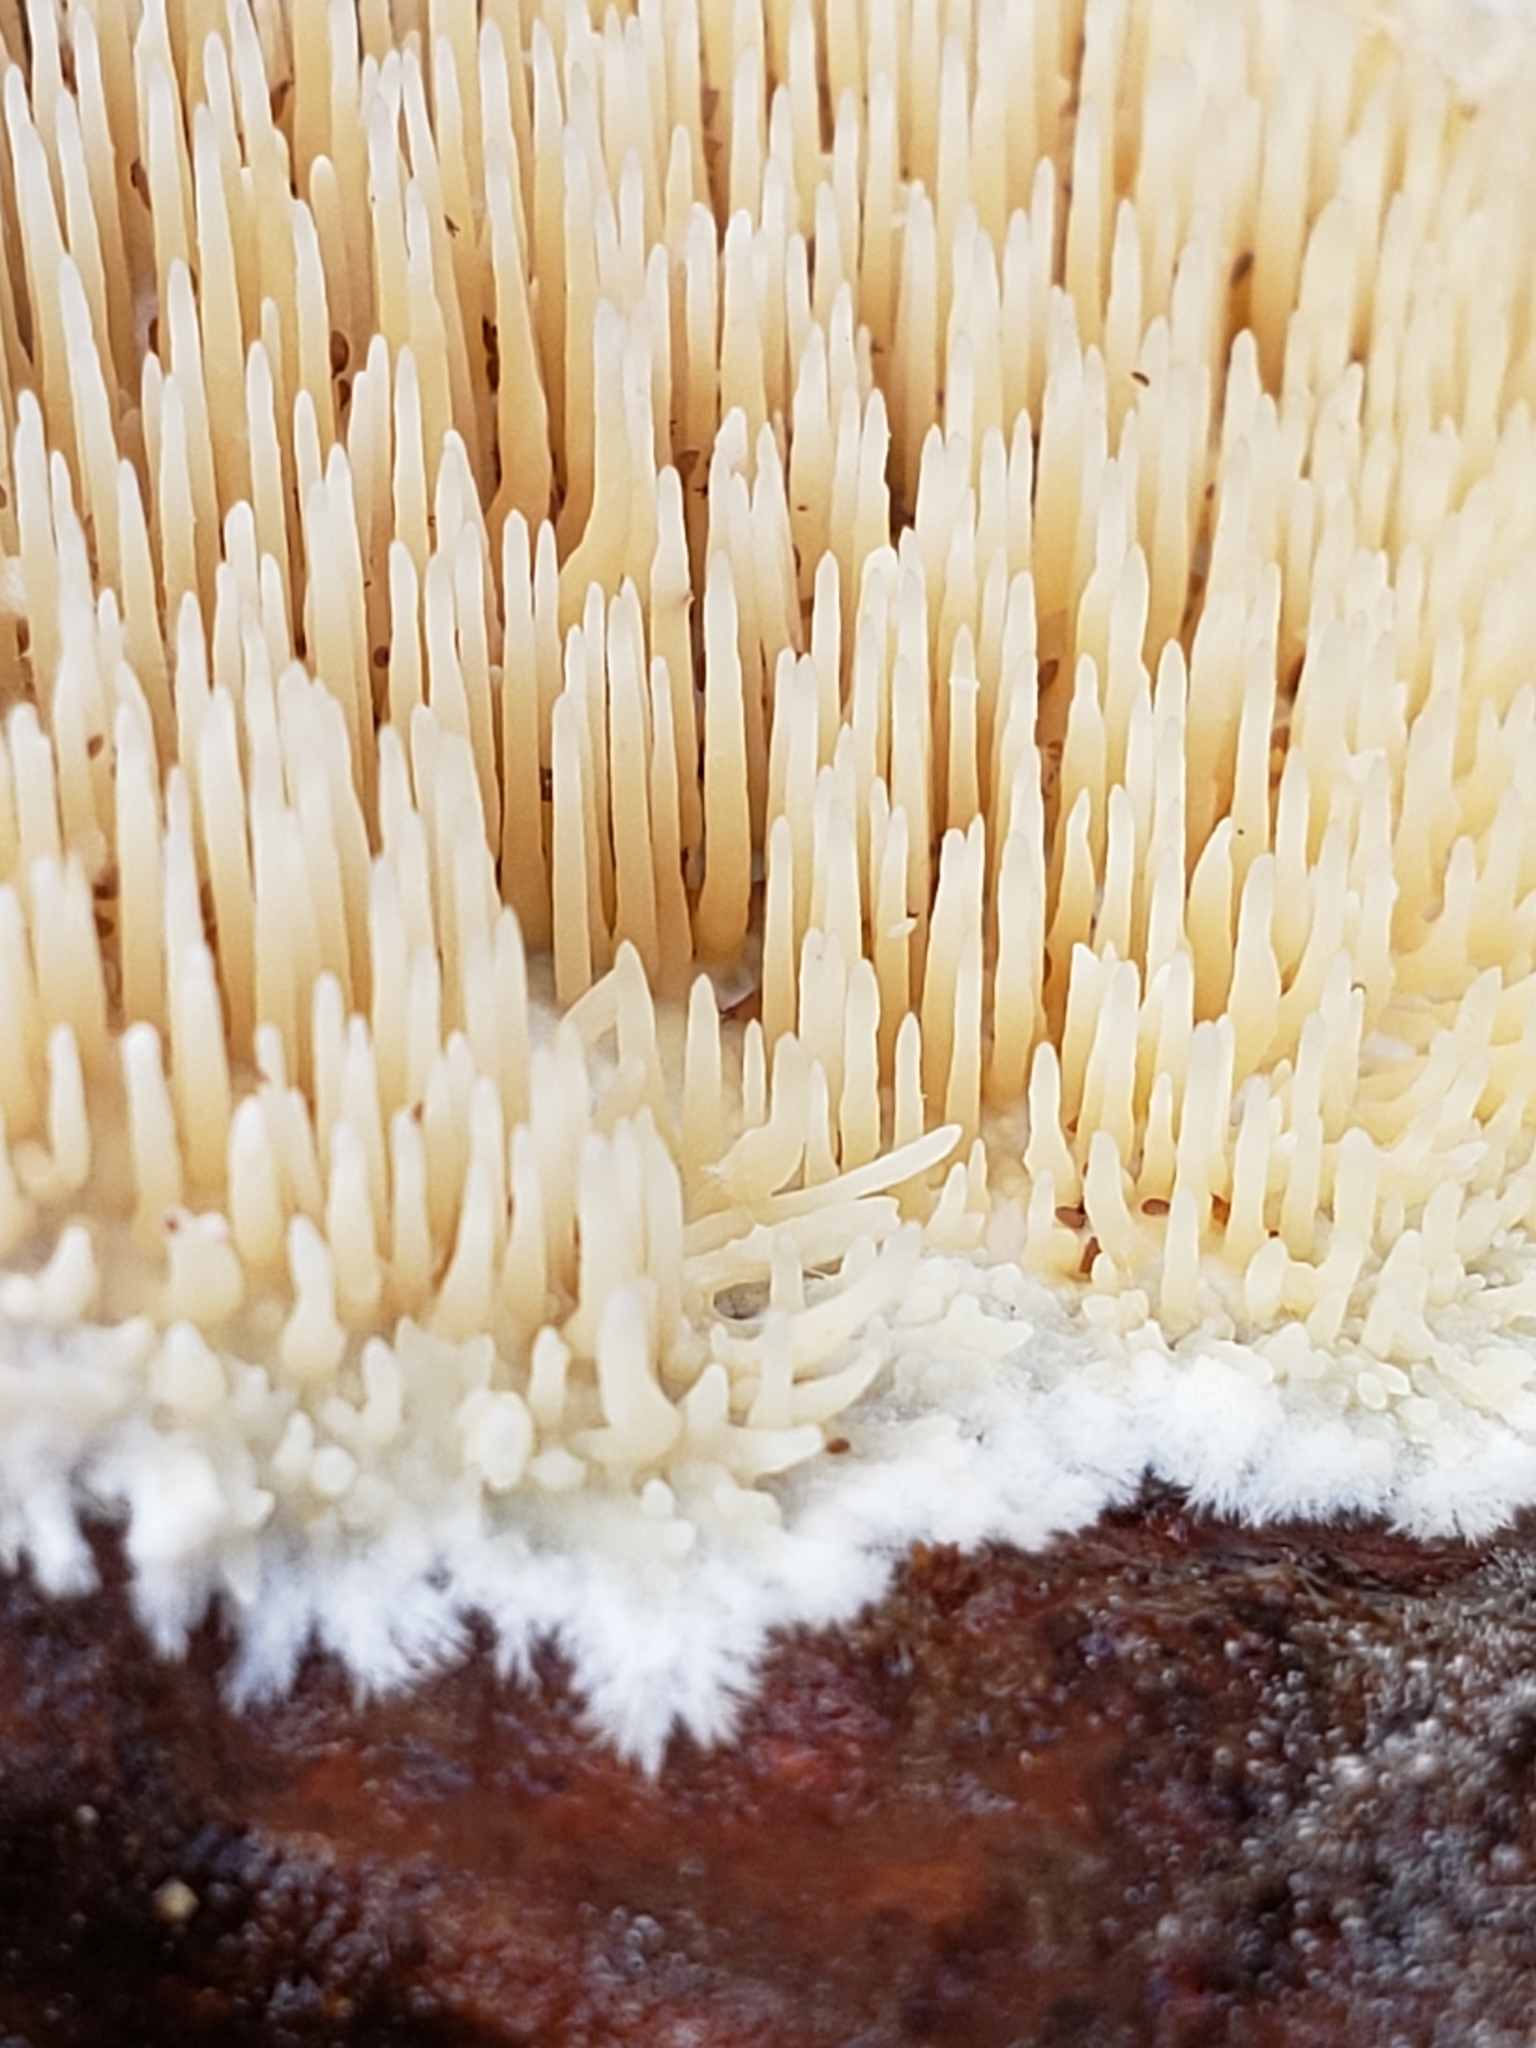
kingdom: Fungi
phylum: Basidiomycota
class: Agaricomycetes
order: Agaricales
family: Radulomycetaceae
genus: Radulomyces
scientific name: Radulomyces copelandii
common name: Asian beauty
